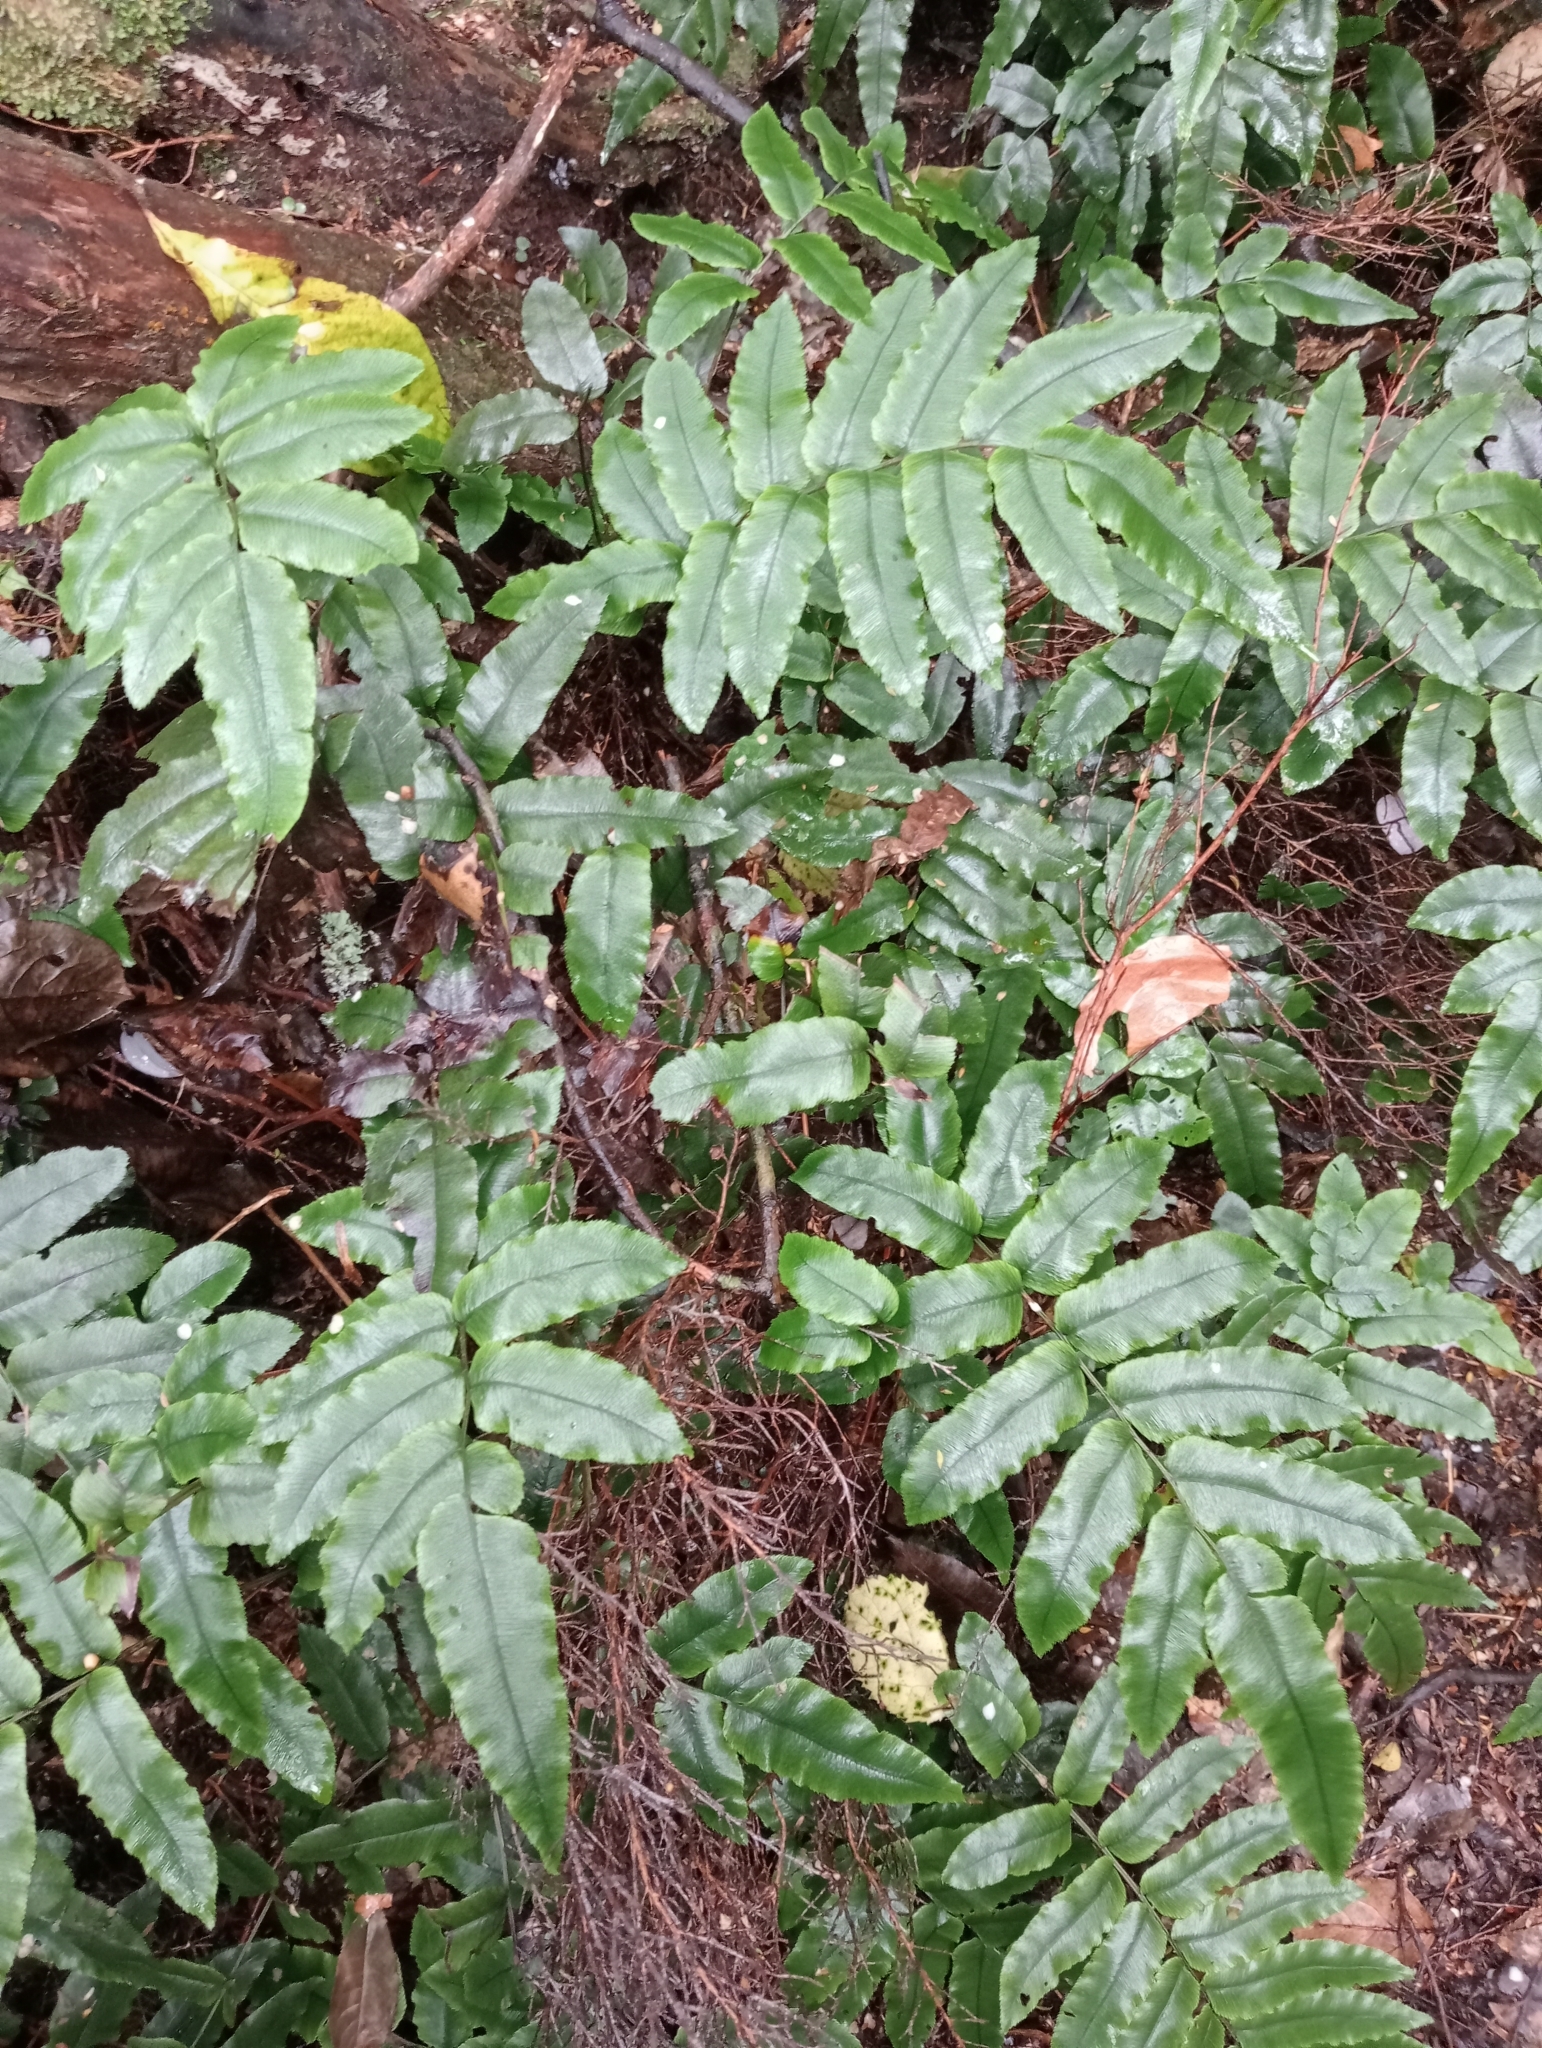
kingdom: Plantae
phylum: Tracheophyta
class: Polypodiopsida
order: Polypodiales
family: Blechnaceae
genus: Parablechnum
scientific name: Parablechnum procerum
